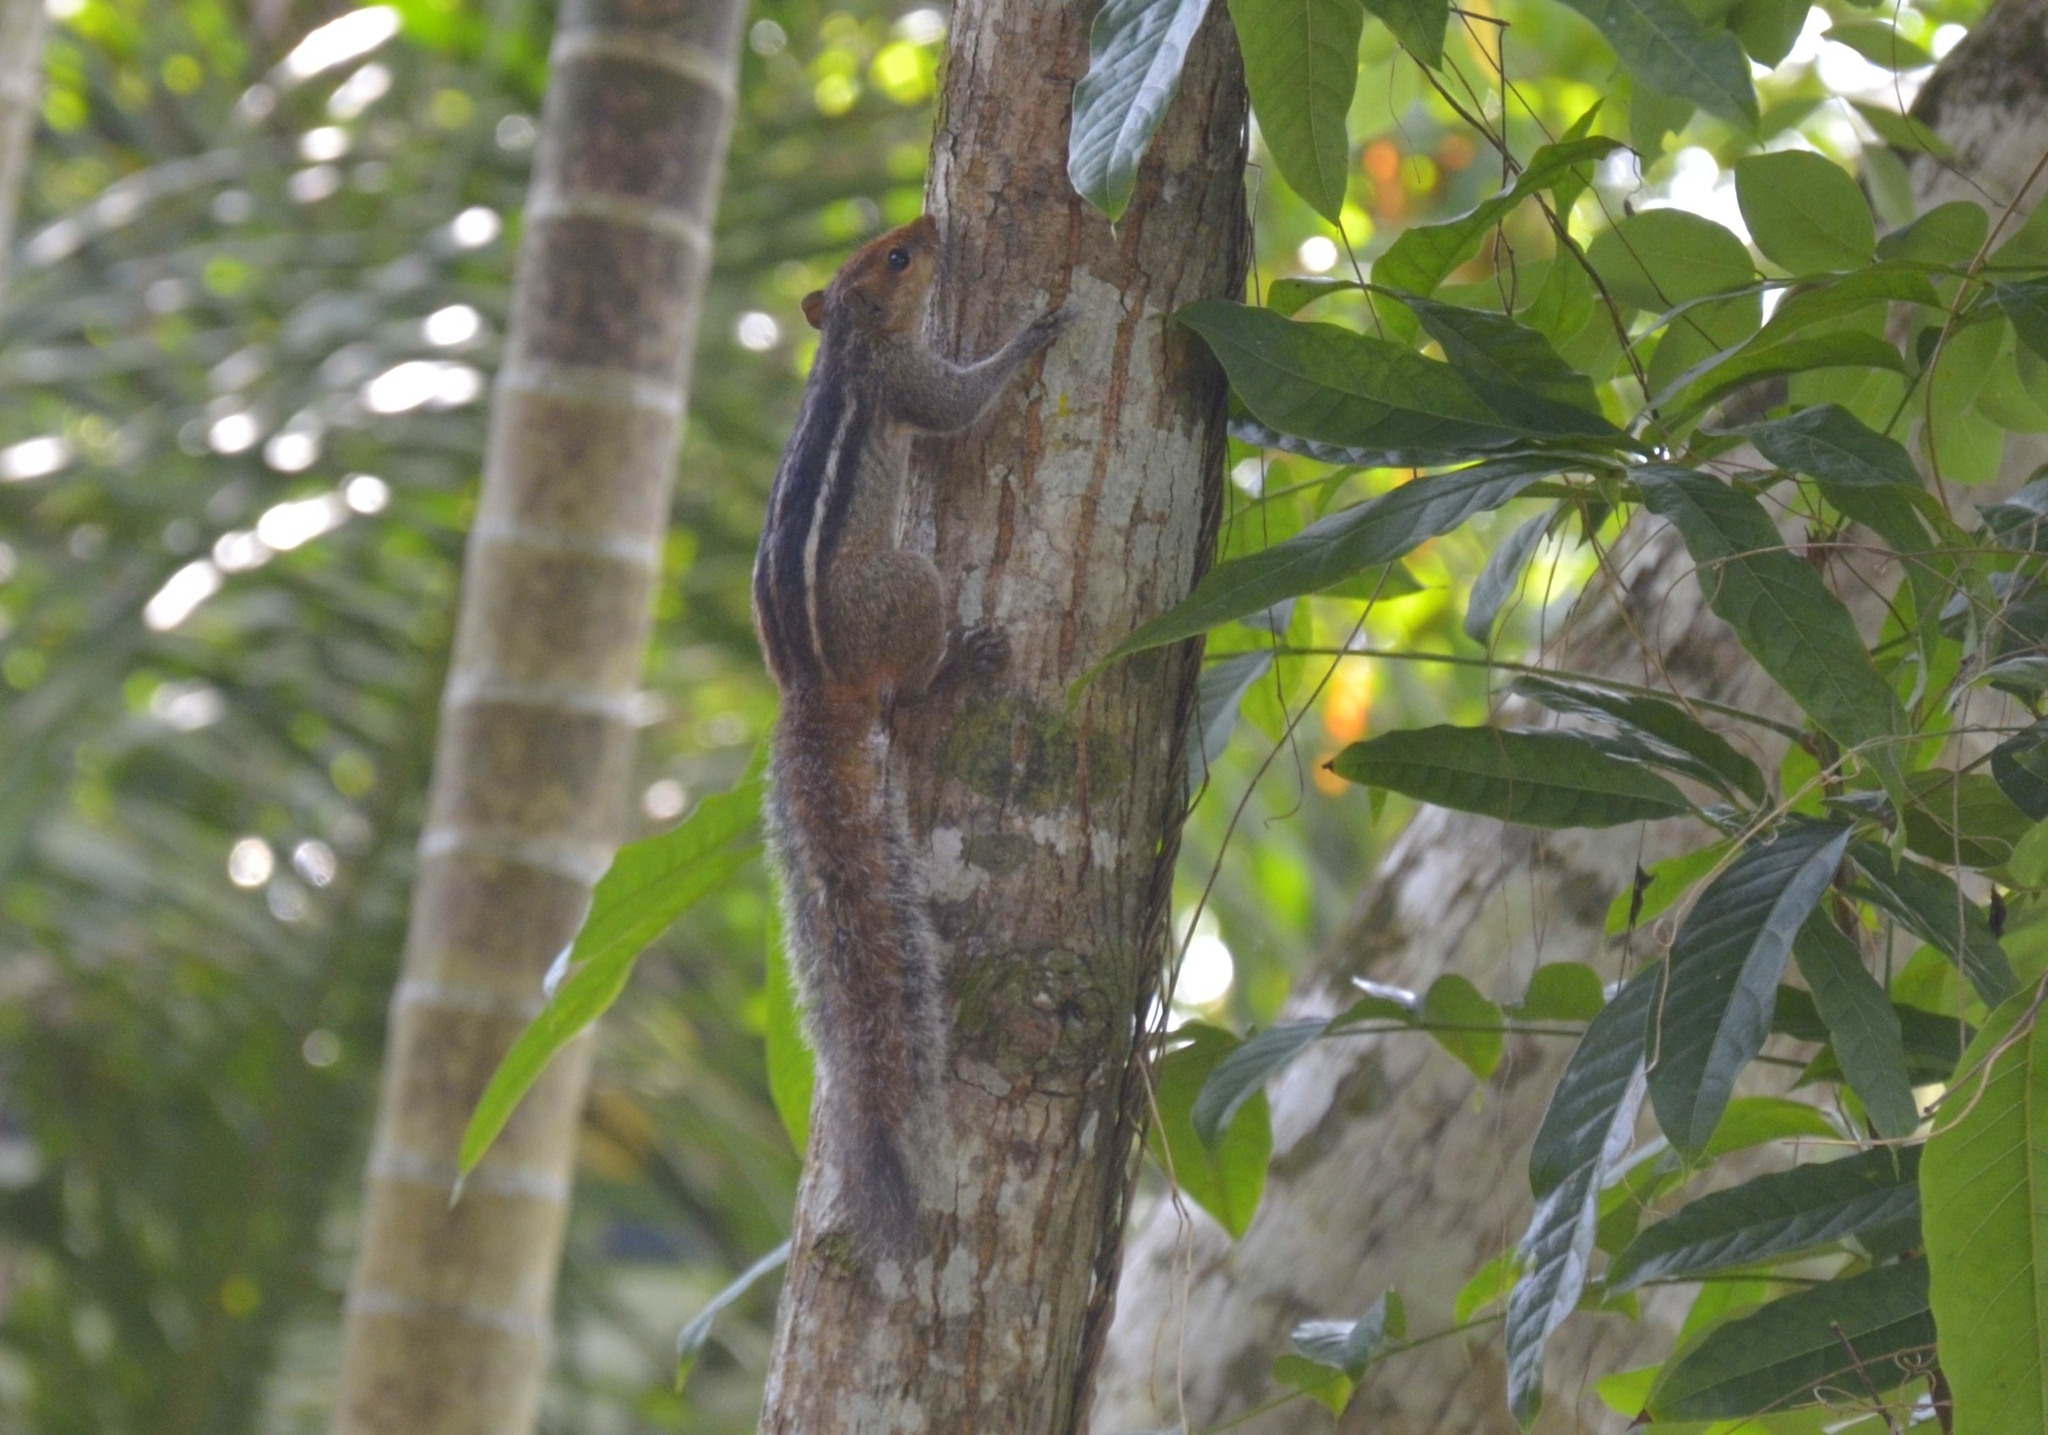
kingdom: Animalia
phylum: Chordata
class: Mammalia
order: Rodentia
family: Sciuridae
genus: Funambulus
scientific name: Funambulus tristriatus
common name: Jungle palm squirrel
